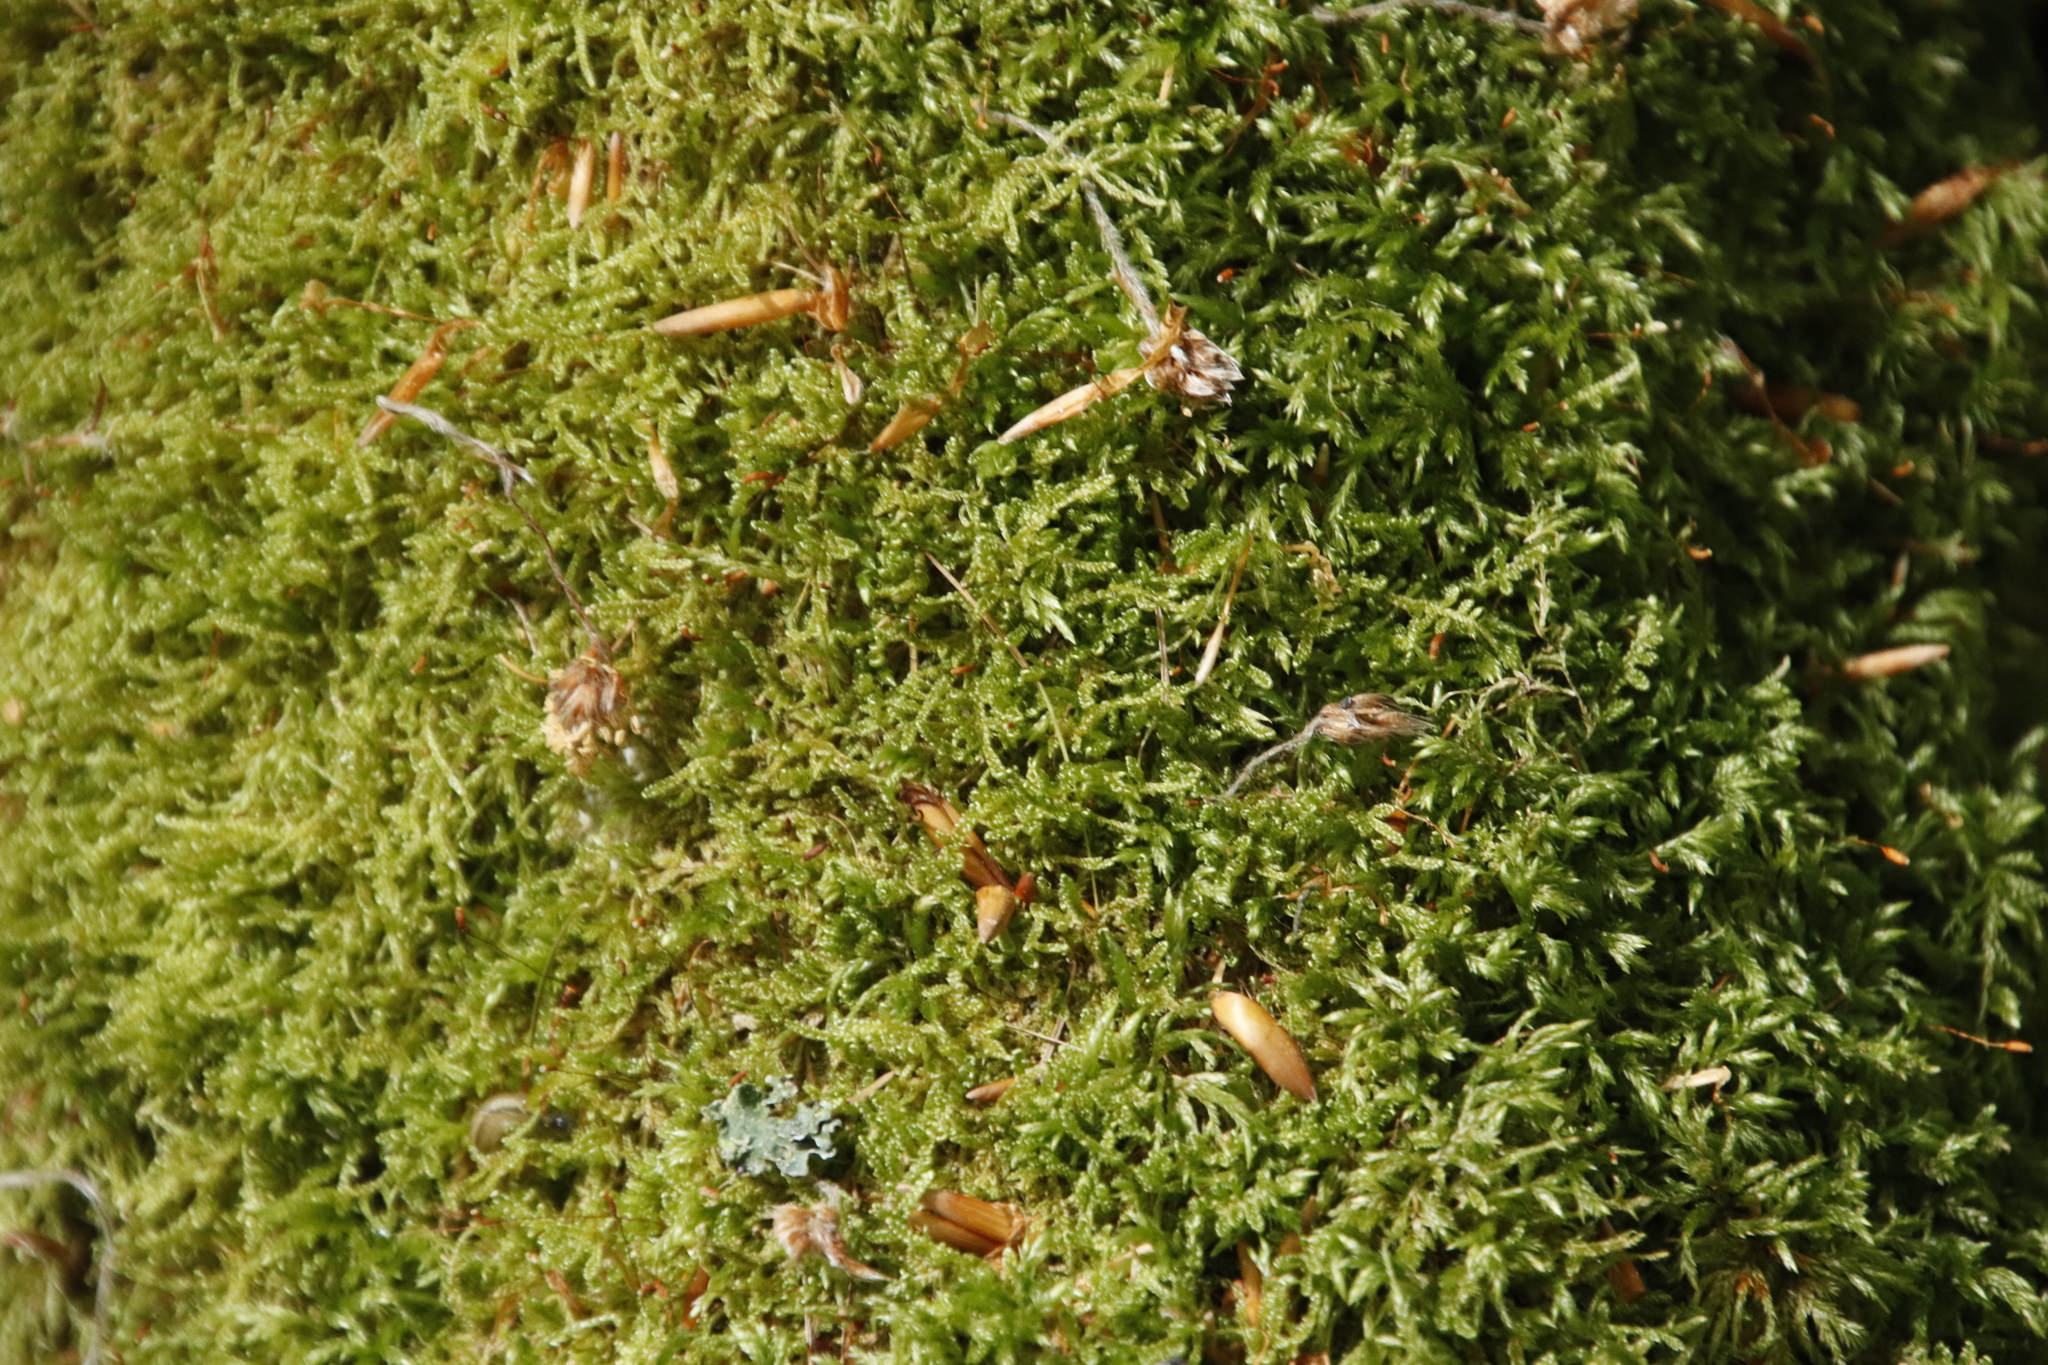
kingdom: Plantae
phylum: Bryophyta
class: Bryopsida
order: Hypnales
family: Hypnaceae
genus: Hypnum
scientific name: Hypnum cupressiforme
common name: Cypress-leaved plait-moss
